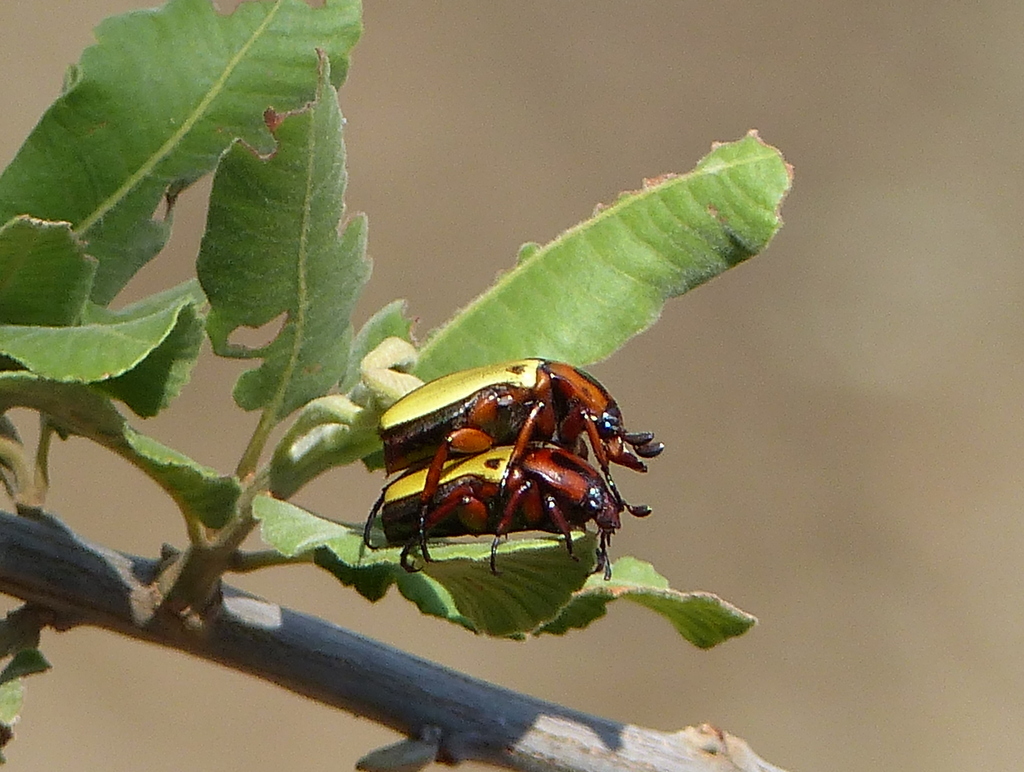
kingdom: Animalia
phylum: Arthropoda
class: Insecta
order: Coleoptera
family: Scarabaeidae
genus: Anisorrhina
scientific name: Anisorrhina algoensis
